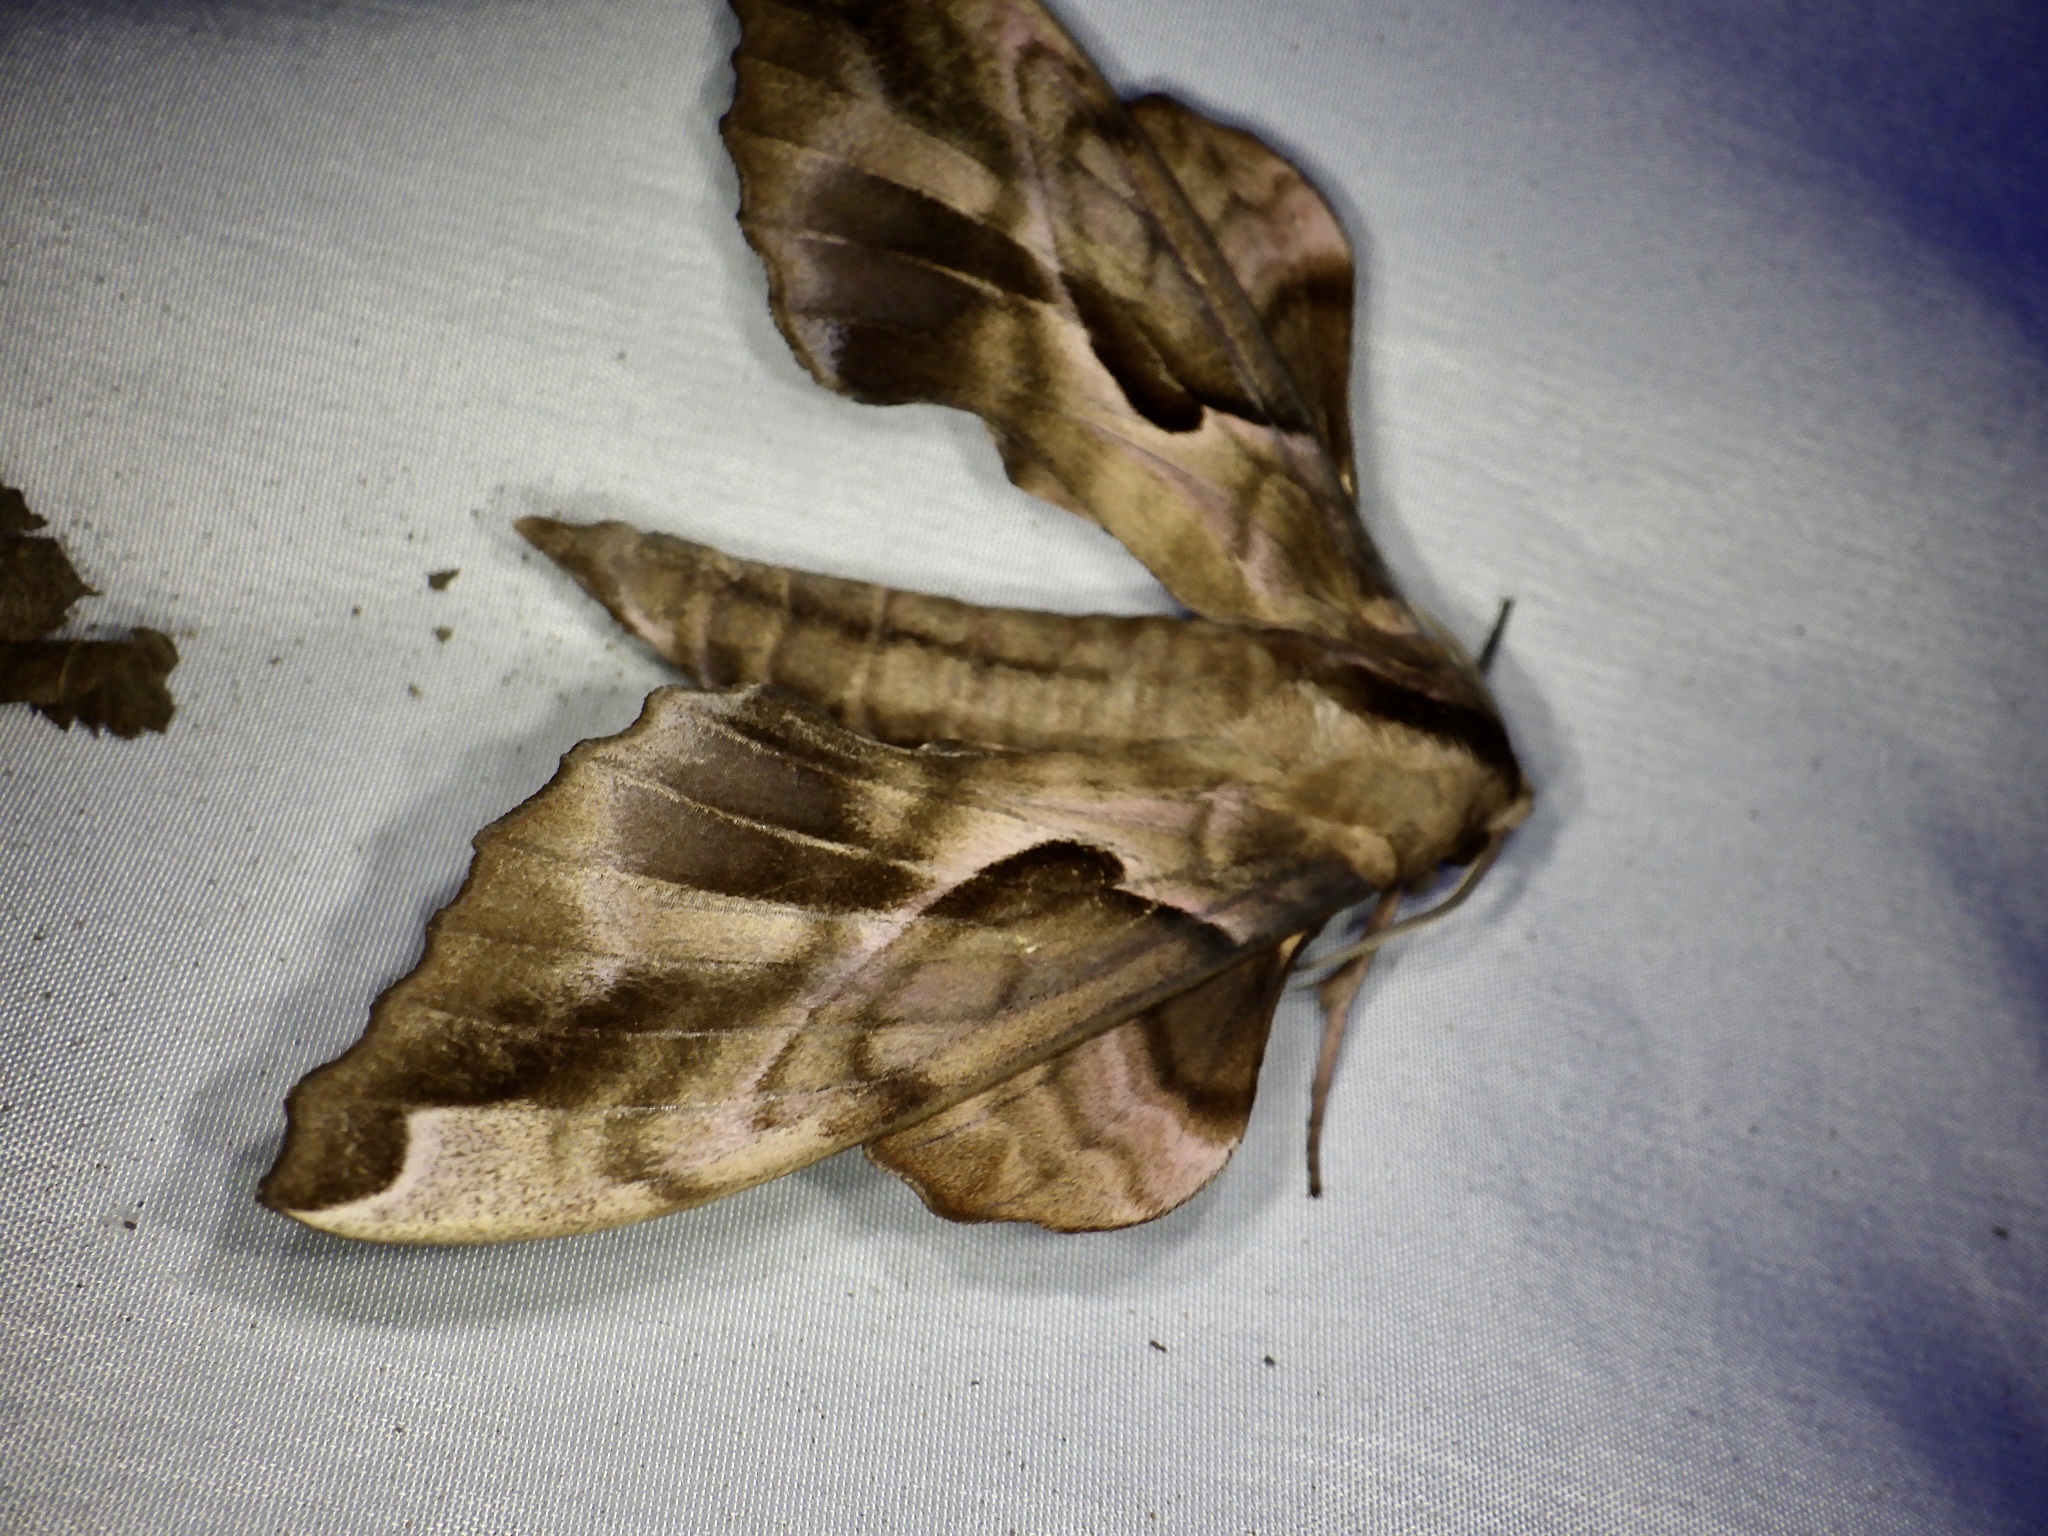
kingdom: Animalia
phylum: Arthropoda
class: Insecta
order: Lepidoptera
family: Sphingidae
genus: Phyllosphingia
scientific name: Phyllosphingia dissimilis
